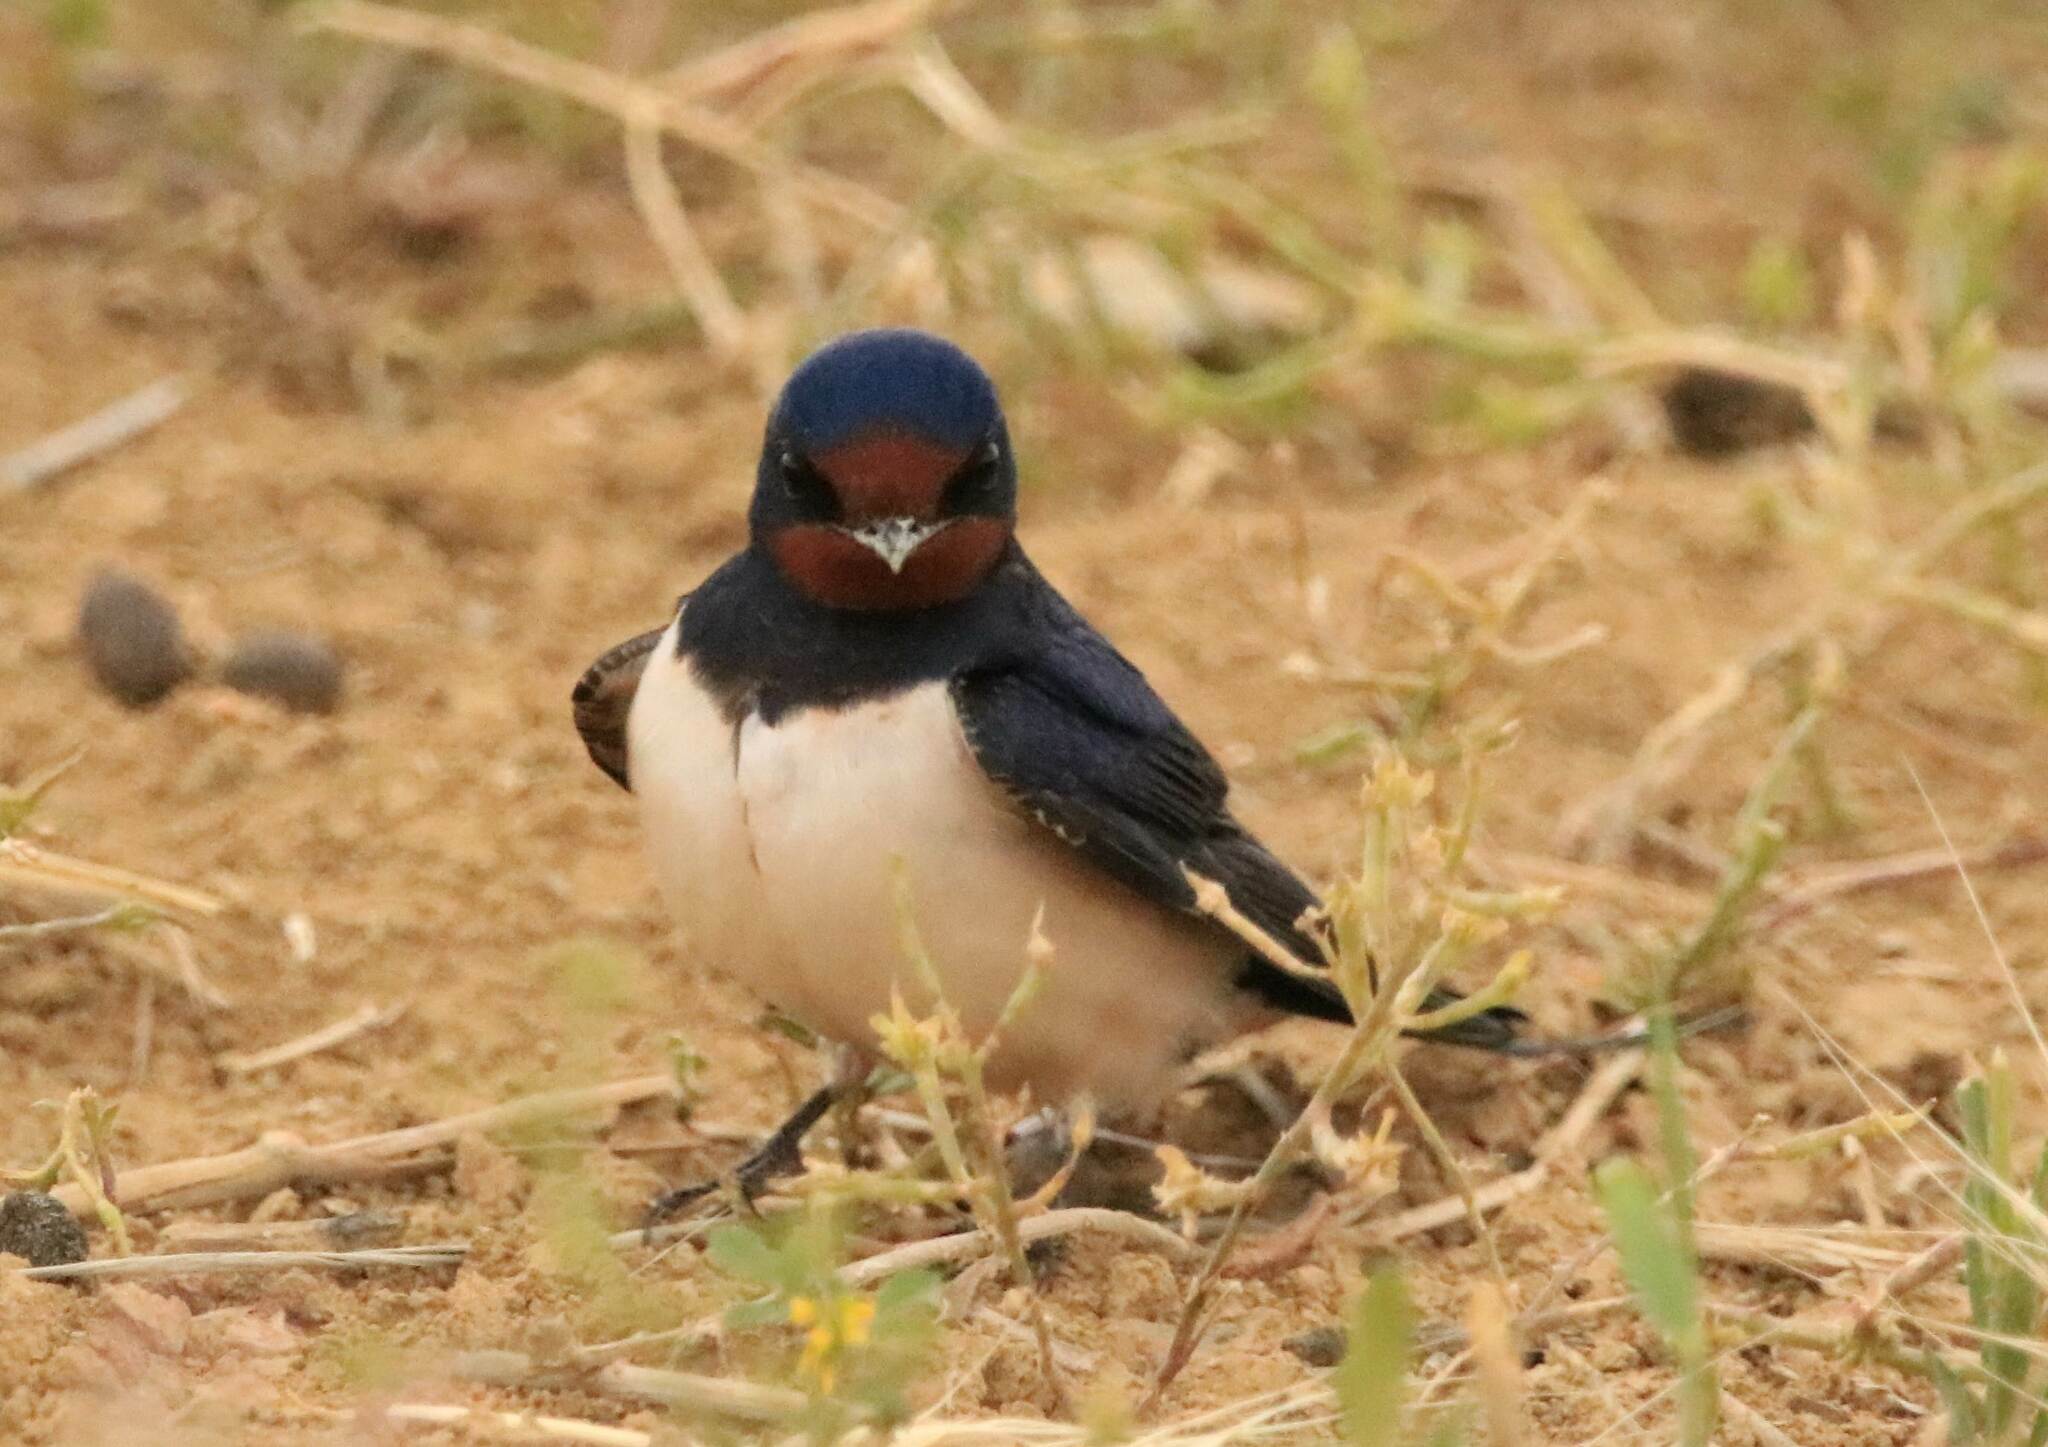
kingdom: Animalia
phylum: Chordata
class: Aves
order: Passeriformes
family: Hirundinidae
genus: Hirundo
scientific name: Hirundo rustica
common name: Barn swallow
